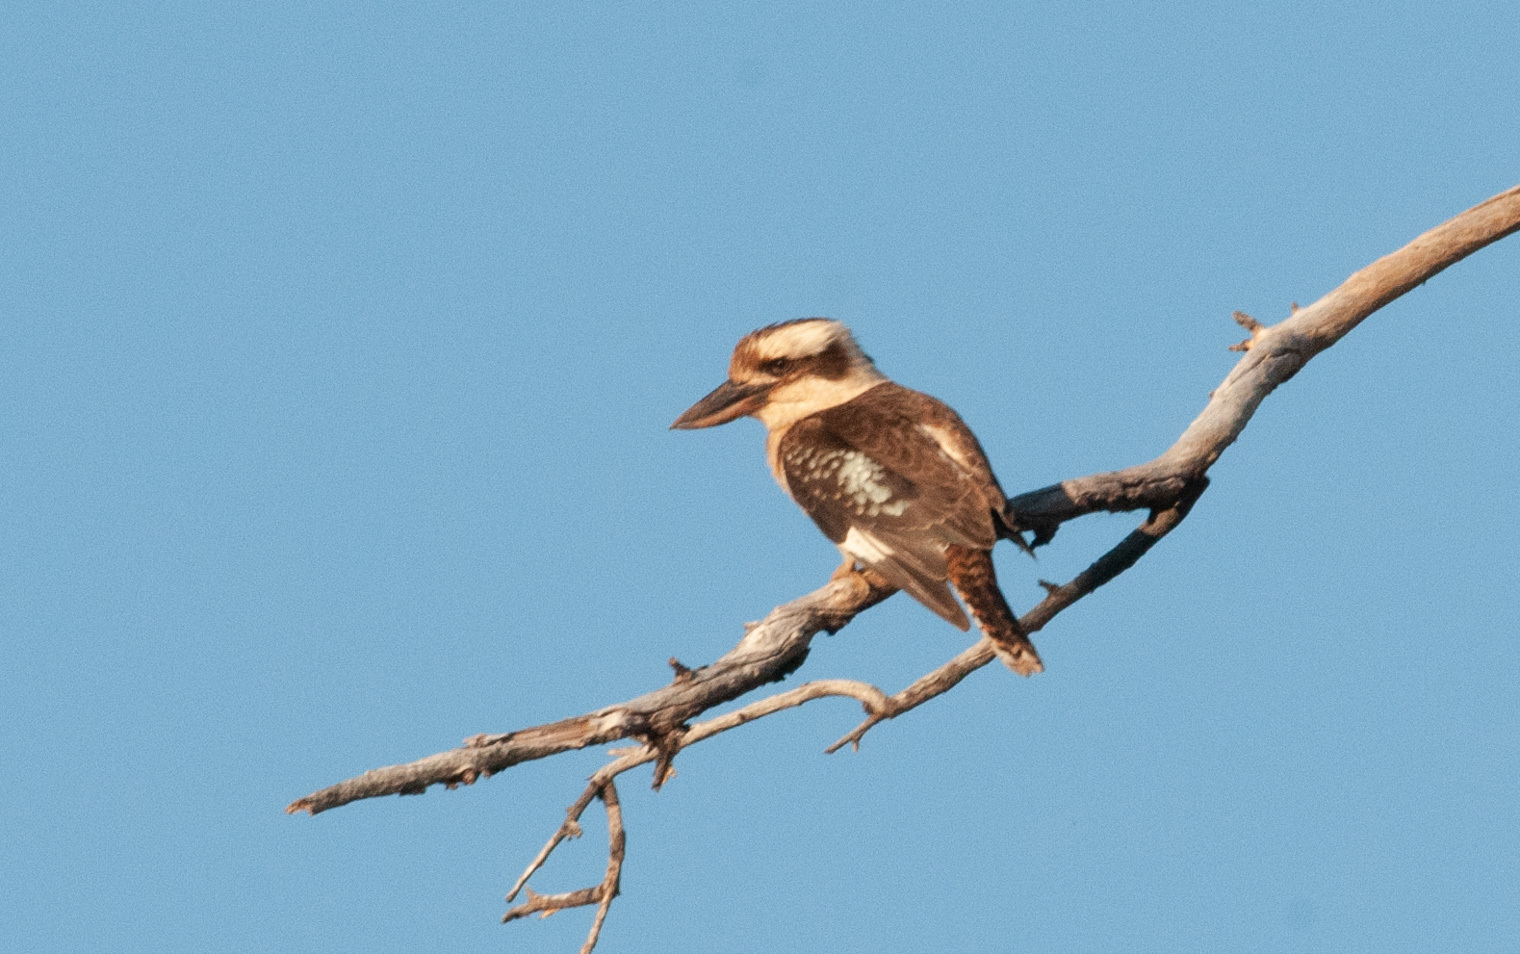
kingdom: Animalia
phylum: Chordata
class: Aves
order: Coraciiformes
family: Alcedinidae
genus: Dacelo
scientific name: Dacelo novaeguineae
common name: Laughing kookaburra
